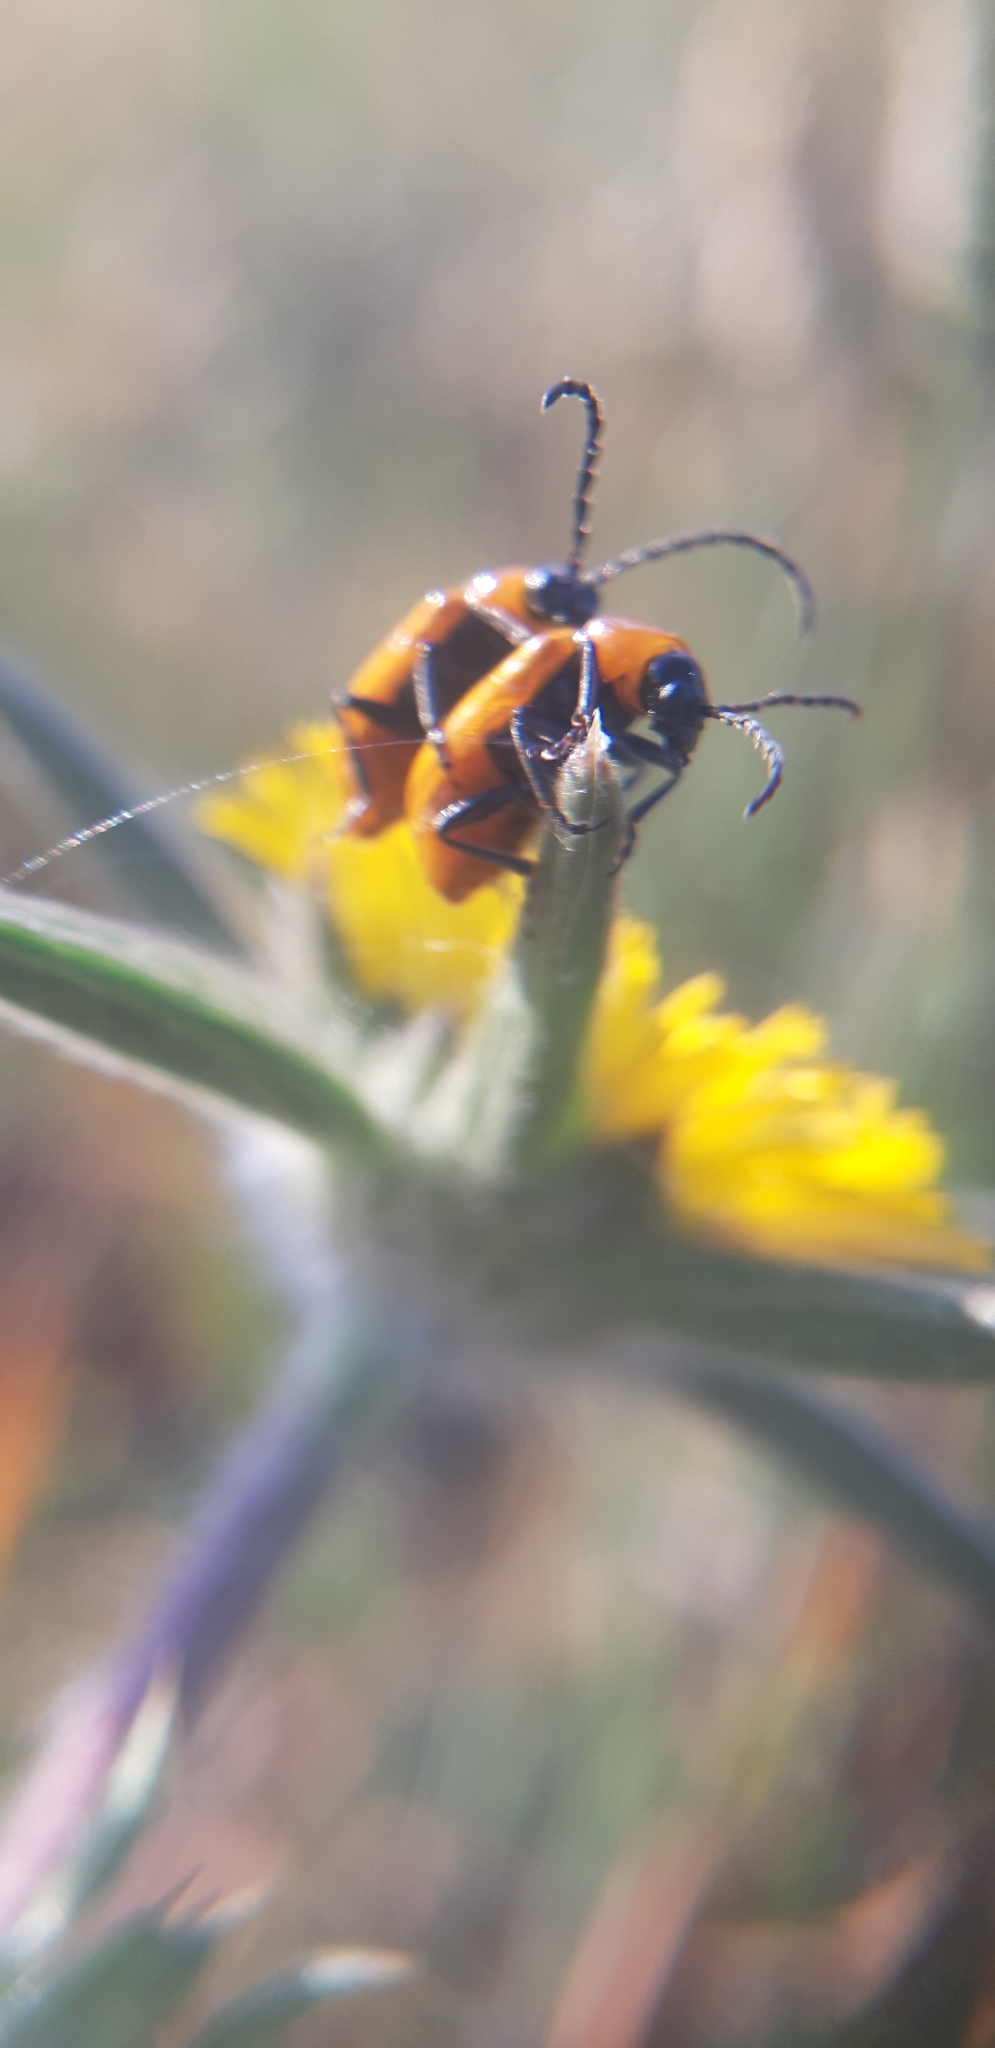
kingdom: Animalia
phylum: Arthropoda
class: Insecta
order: Coleoptera
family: Chrysomelidae
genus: Exosoma
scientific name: Exosoma lusitanicum
